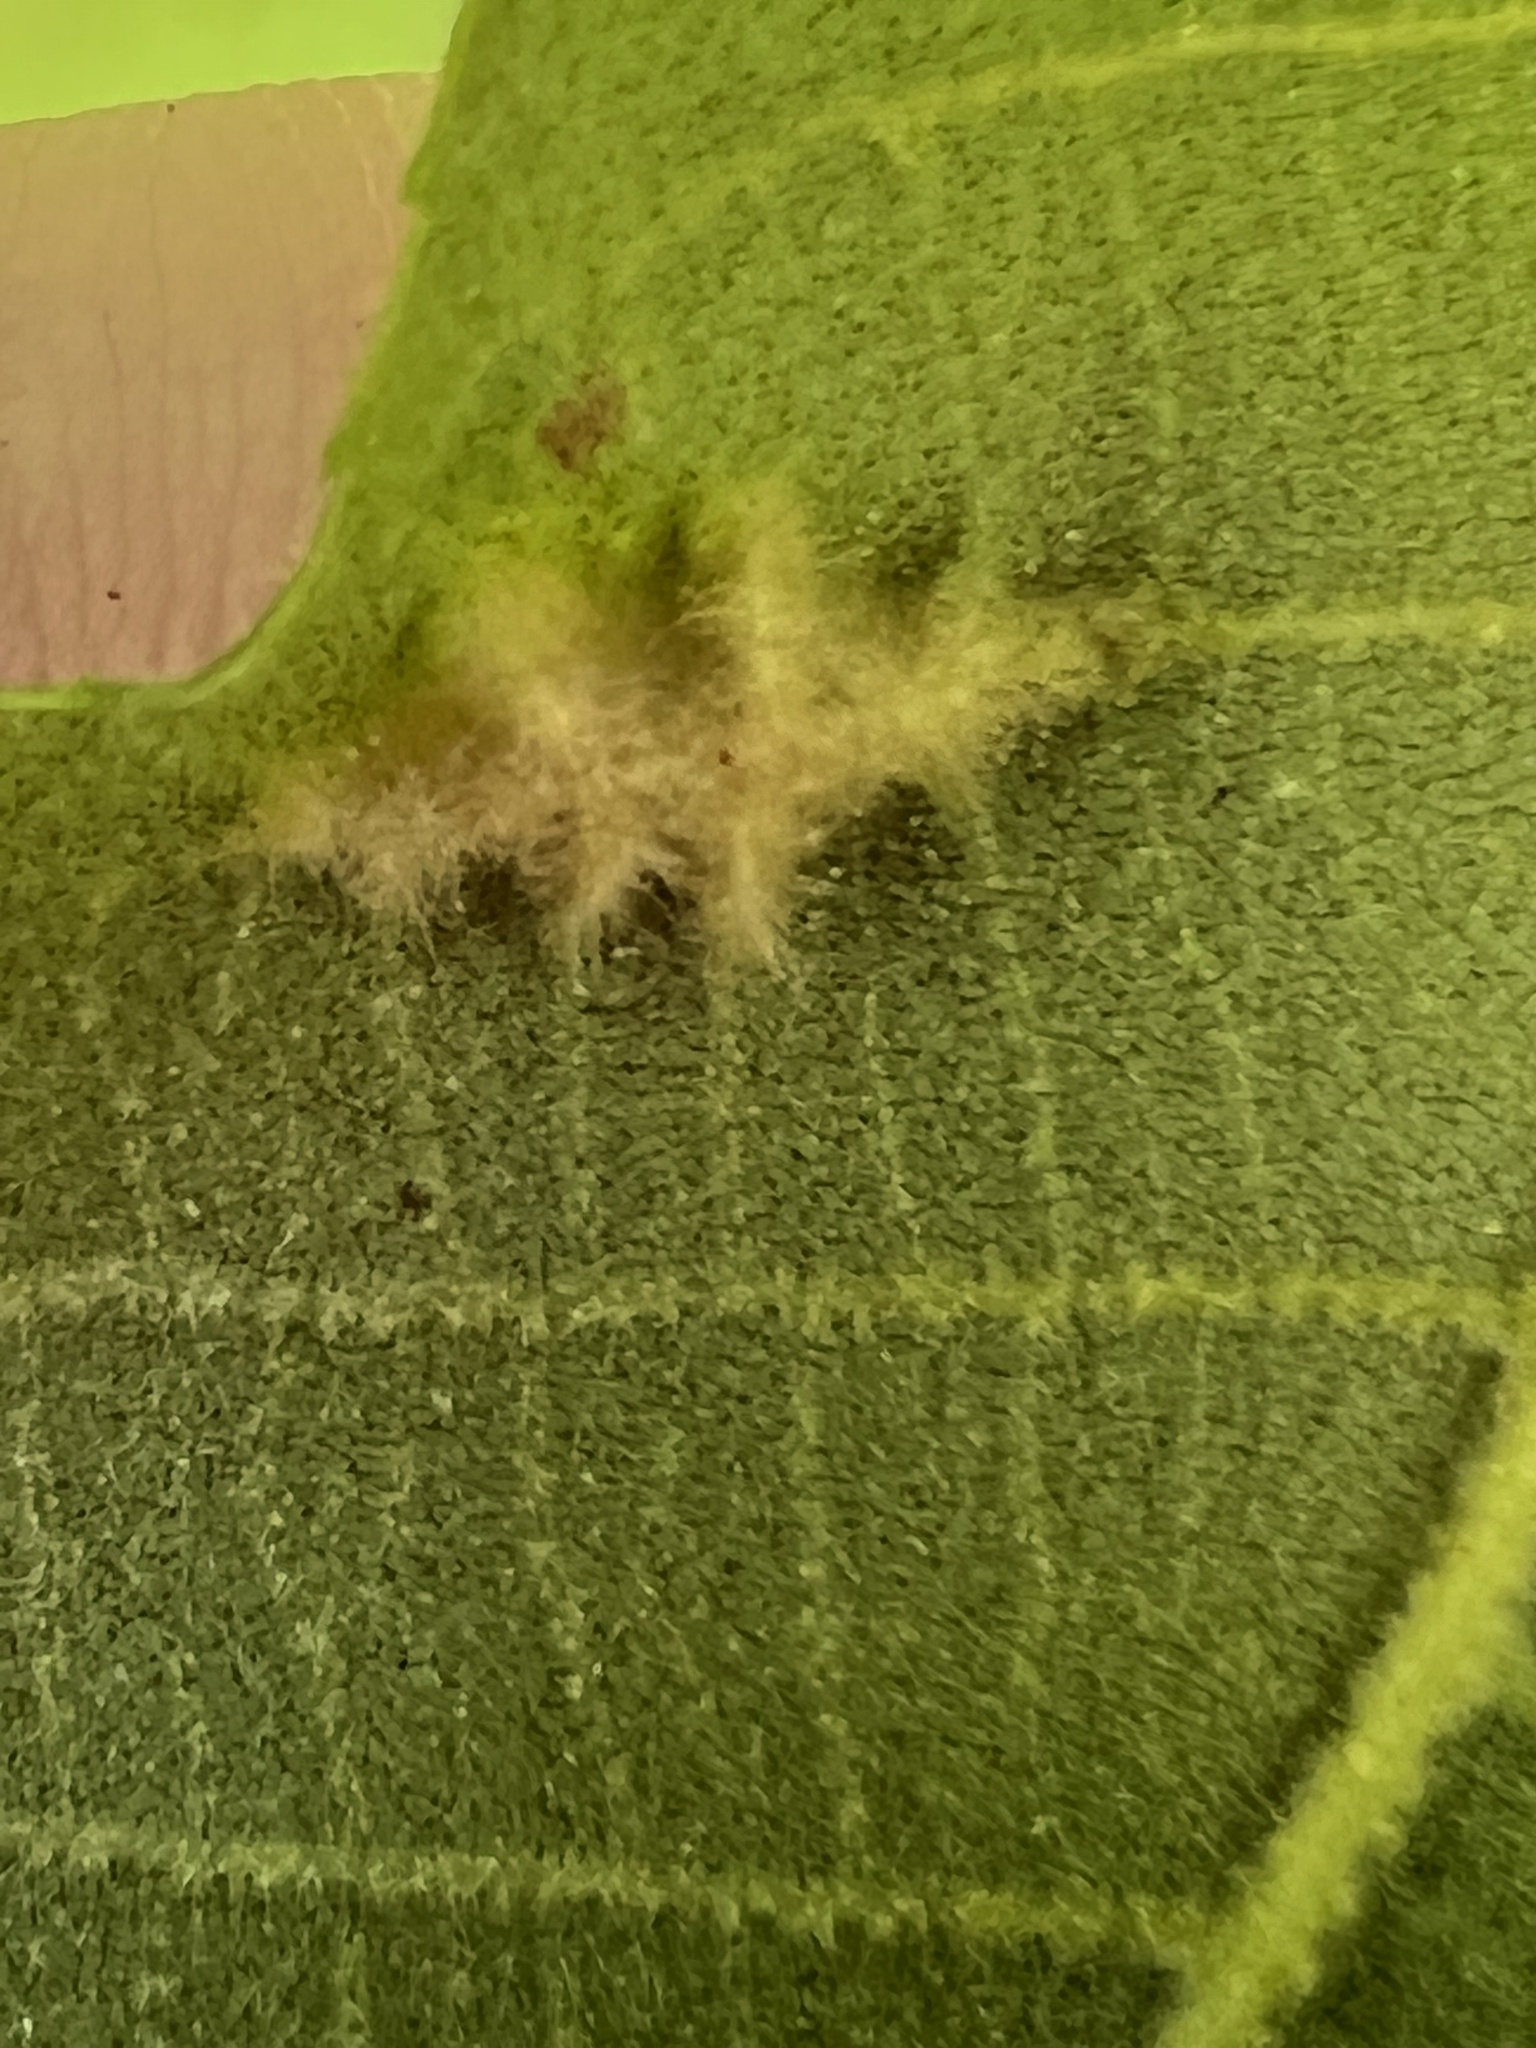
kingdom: Animalia
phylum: Arthropoda
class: Insecta
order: Hemiptera
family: Phylloxeridae
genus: Phylloxera
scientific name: Phylloxera caryaevenae
